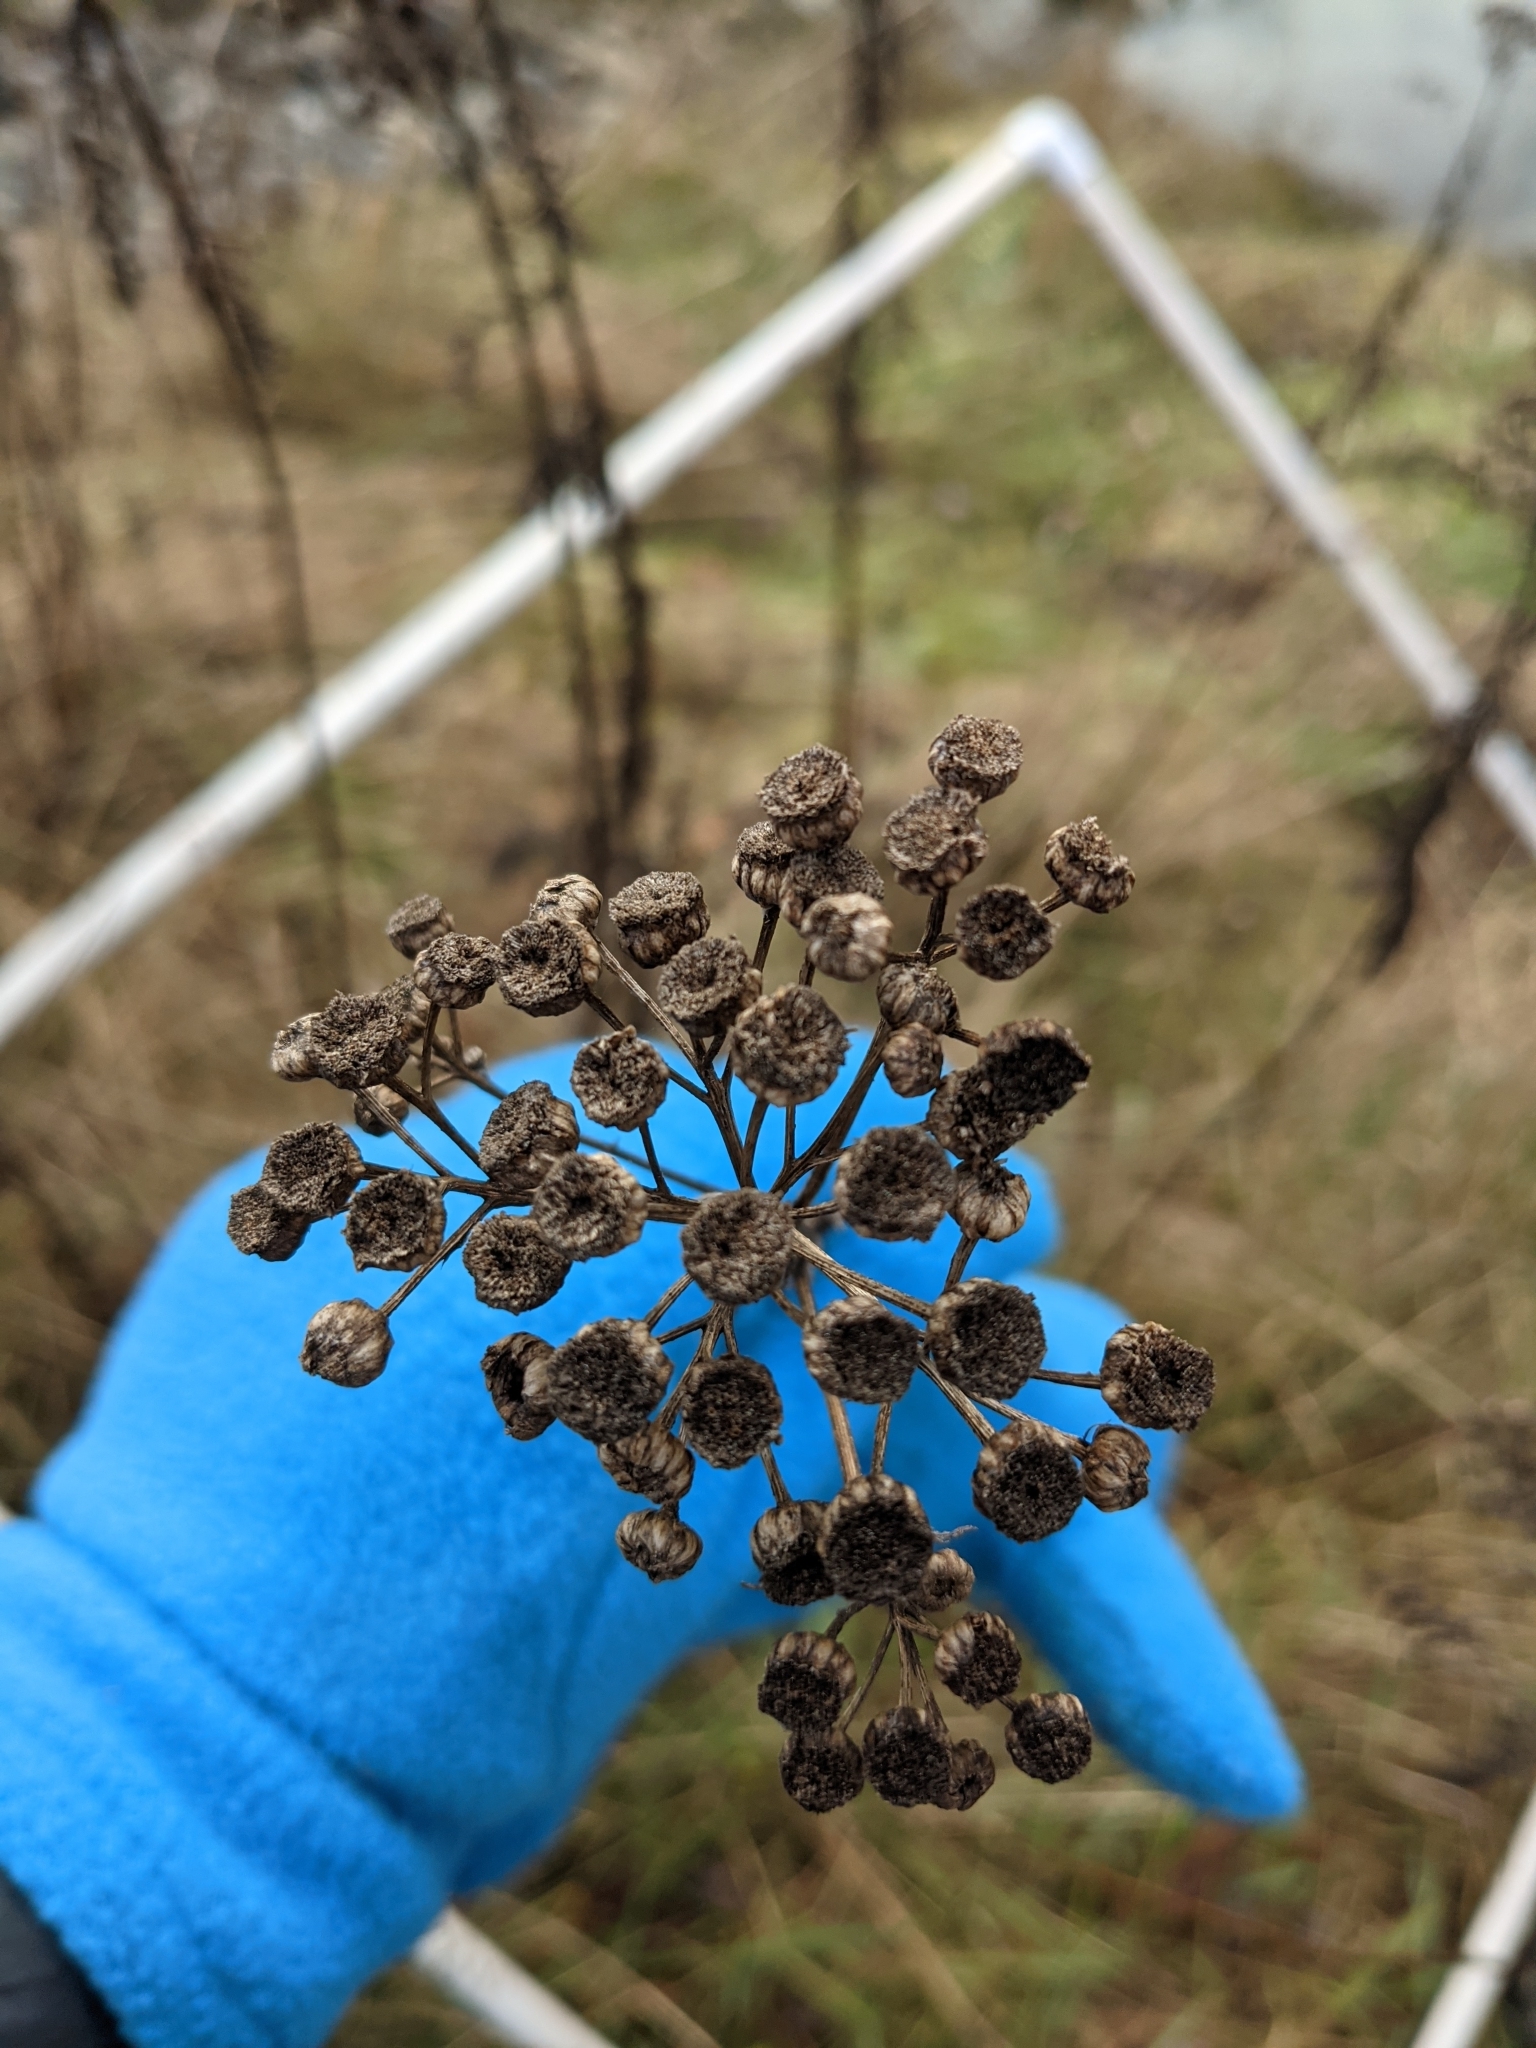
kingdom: Plantae
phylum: Tracheophyta
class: Magnoliopsida
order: Asterales
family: Asteraceae
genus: Tanacetum
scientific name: Tanacetum vulgare
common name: Common tansy
